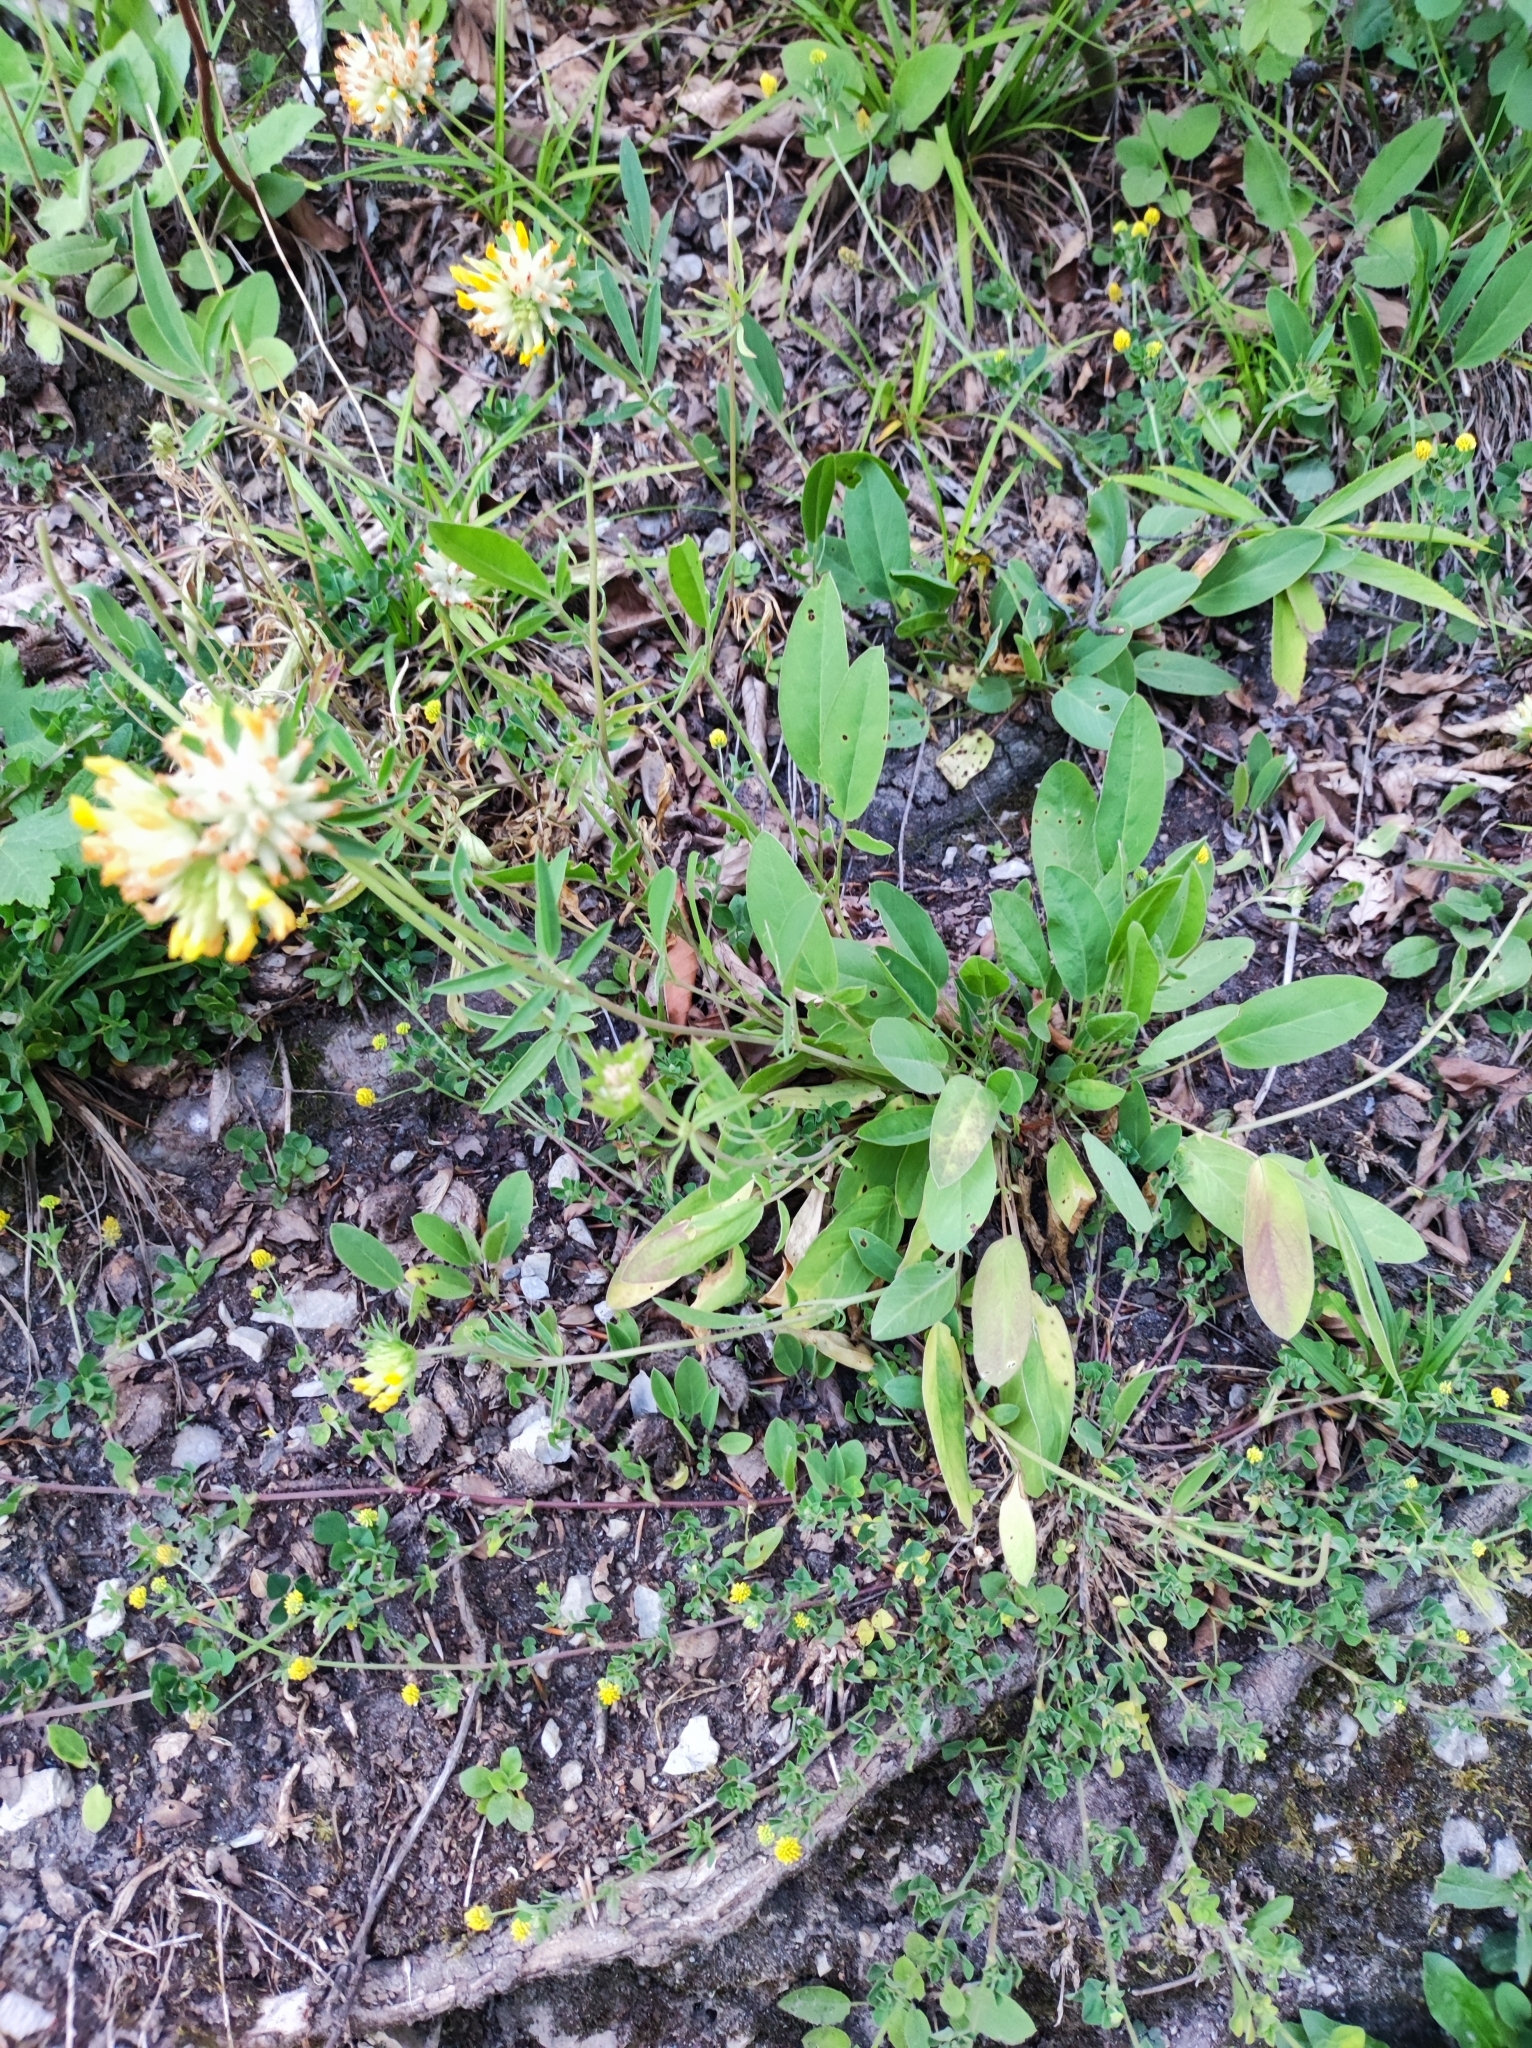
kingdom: Plantae
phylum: Tracheophyta
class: Magnoliopsida
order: Fabales
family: Fabaceae
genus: Anthyllis
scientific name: Anthyllis vulneraria
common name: Kidney vetch
